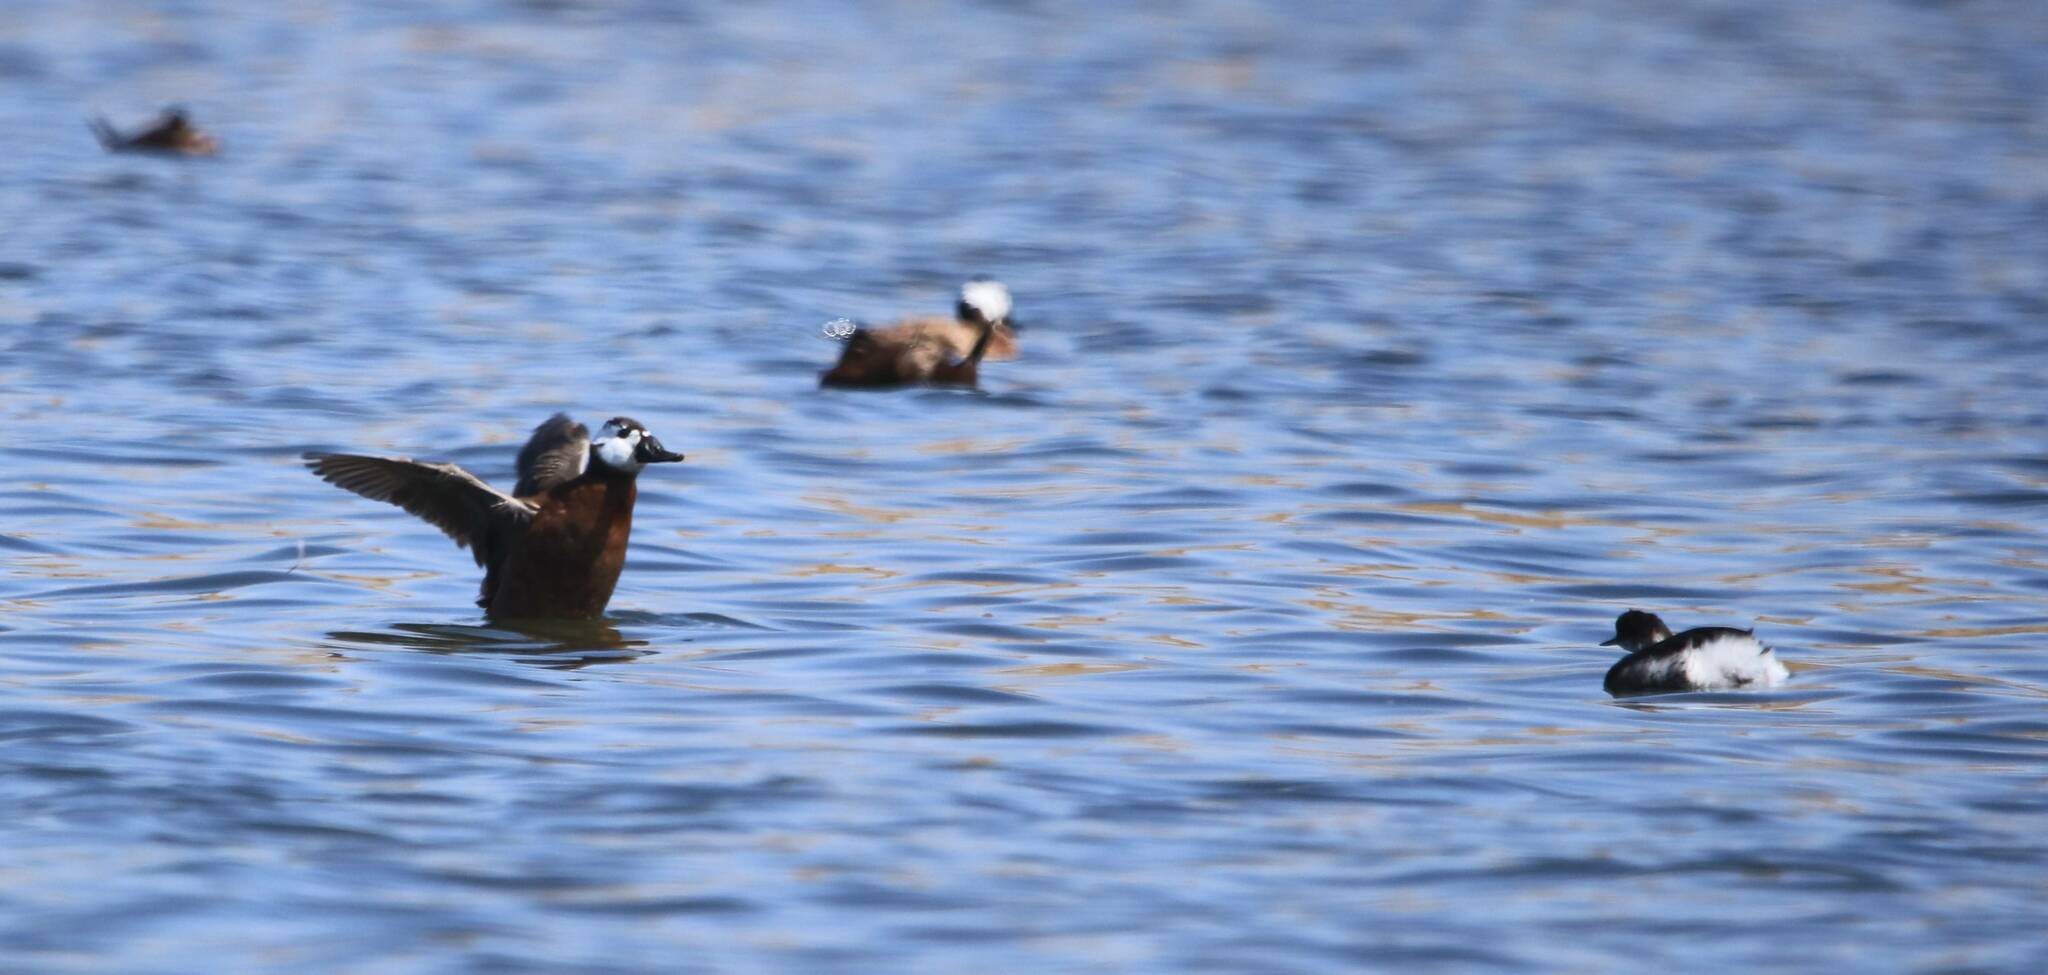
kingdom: Animalia
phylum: Chordata
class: Aves
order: Anseriformes
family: Anatidae
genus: Oxyura
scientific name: Oxyura leucocephala
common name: White-headed duck
